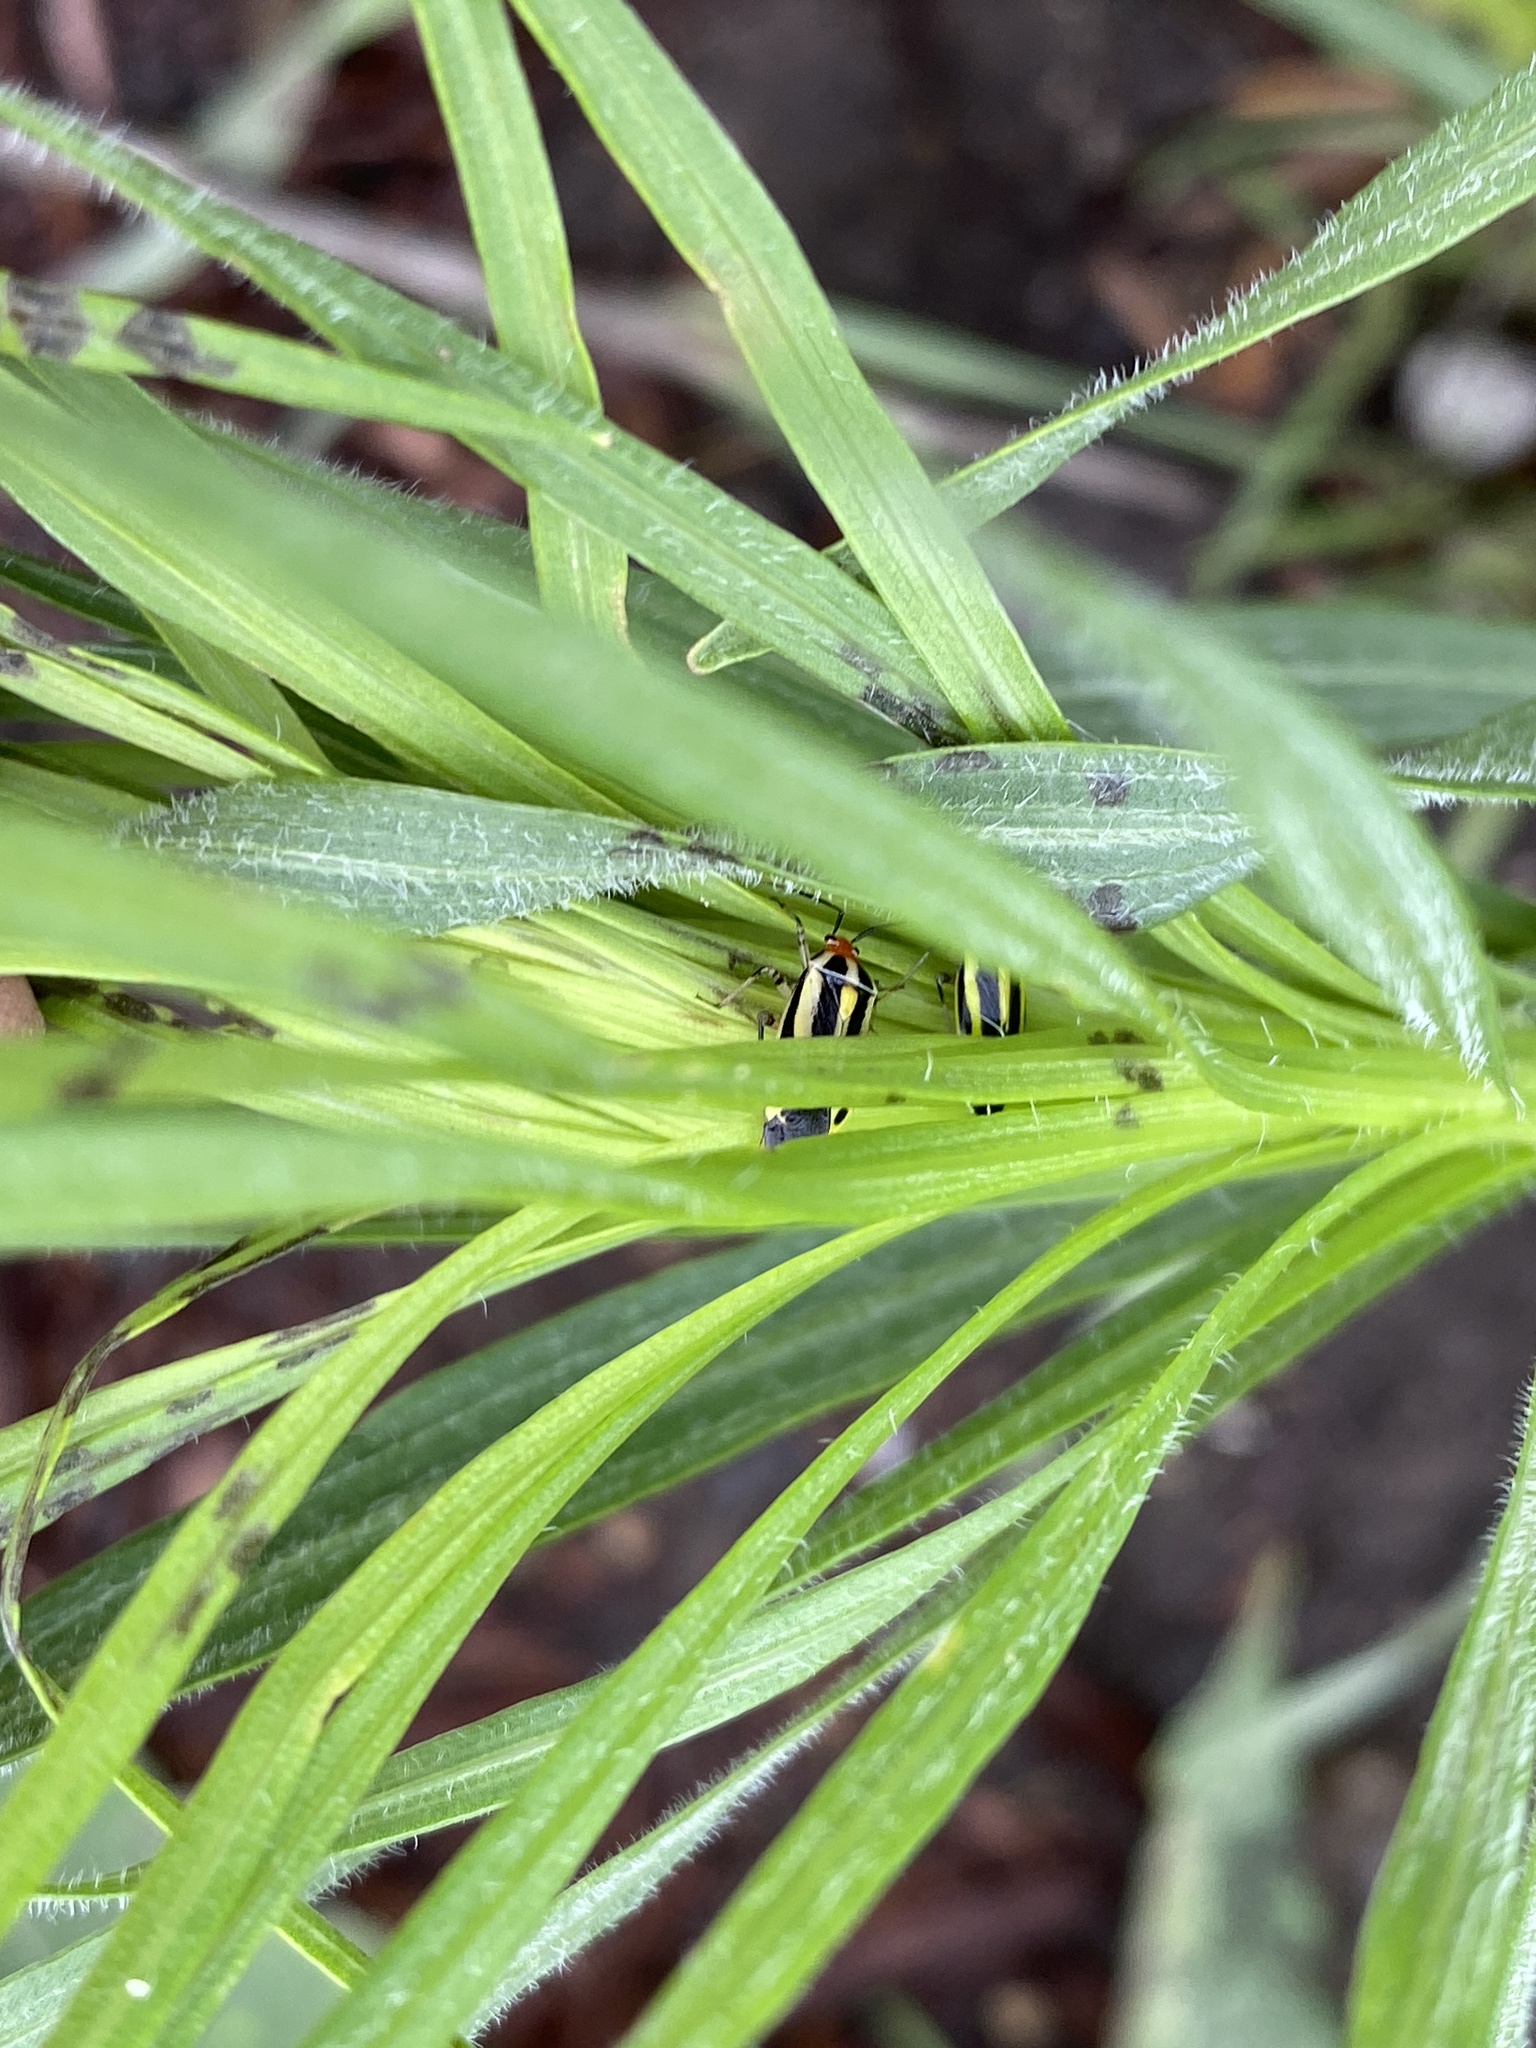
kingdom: Animalia
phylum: Arthropoda
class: Insecta
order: Hemiptera
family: Miridae
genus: Poecilocapsus
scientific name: Poecilocapsus lineatus
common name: Four-lined plant bug
